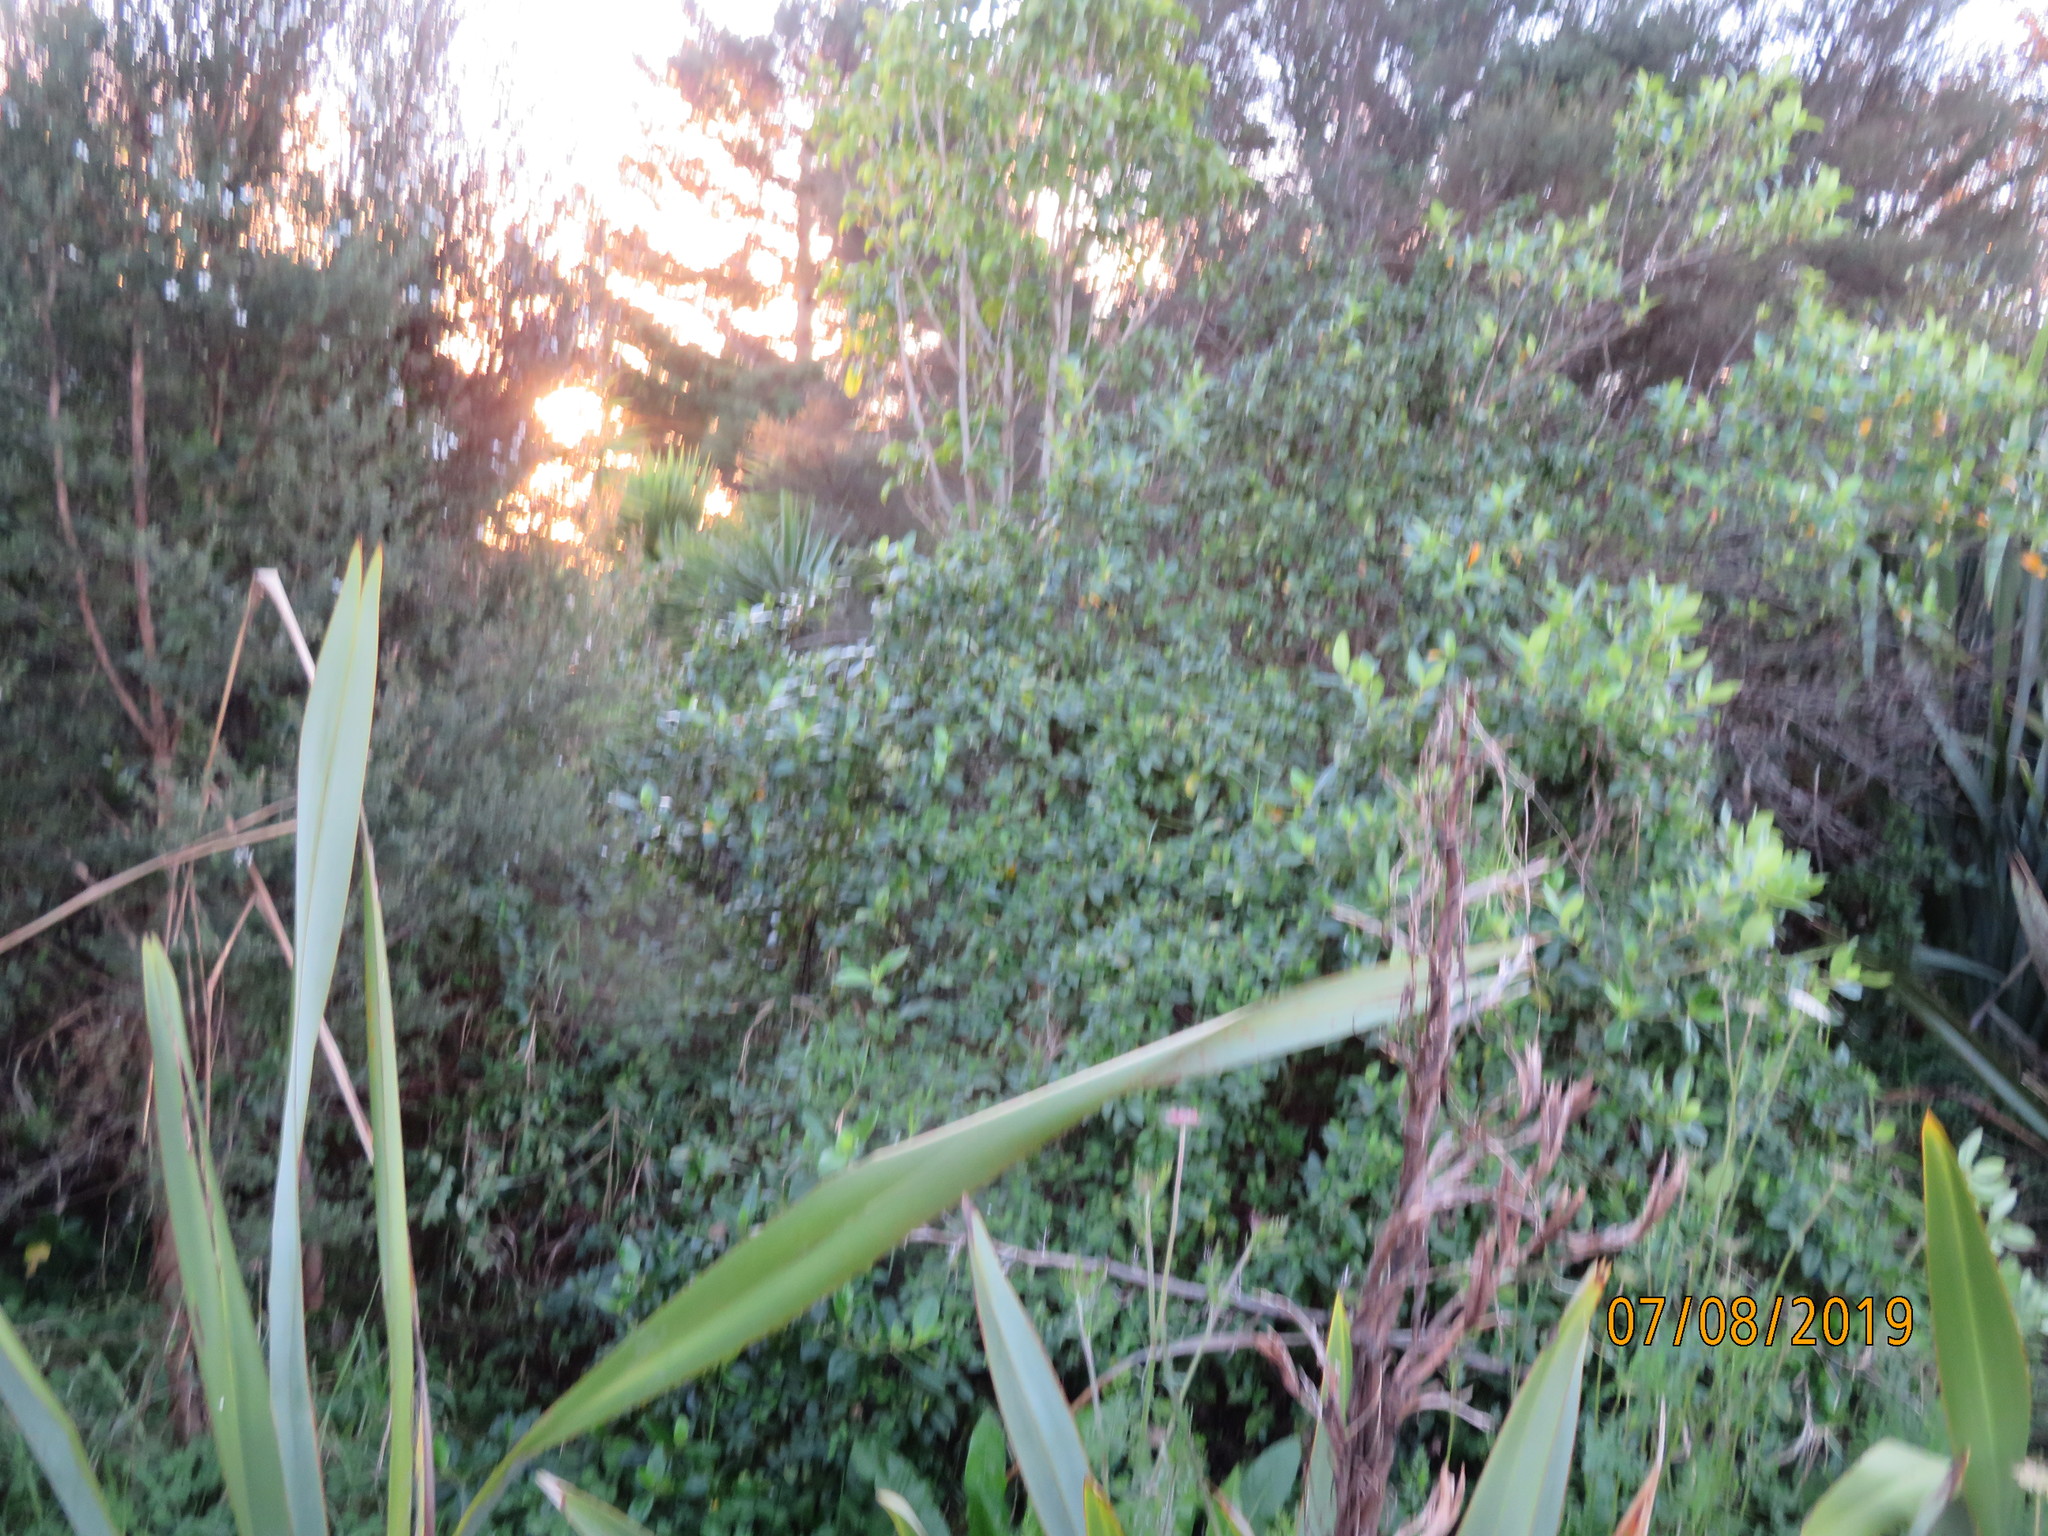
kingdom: Plantae
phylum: Tracheophyta
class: Magnoliopsida
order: Dipsacales
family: Caprifoliaceae
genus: Lonicera
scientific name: Lonicera japonica
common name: Japanese honeysuckle
